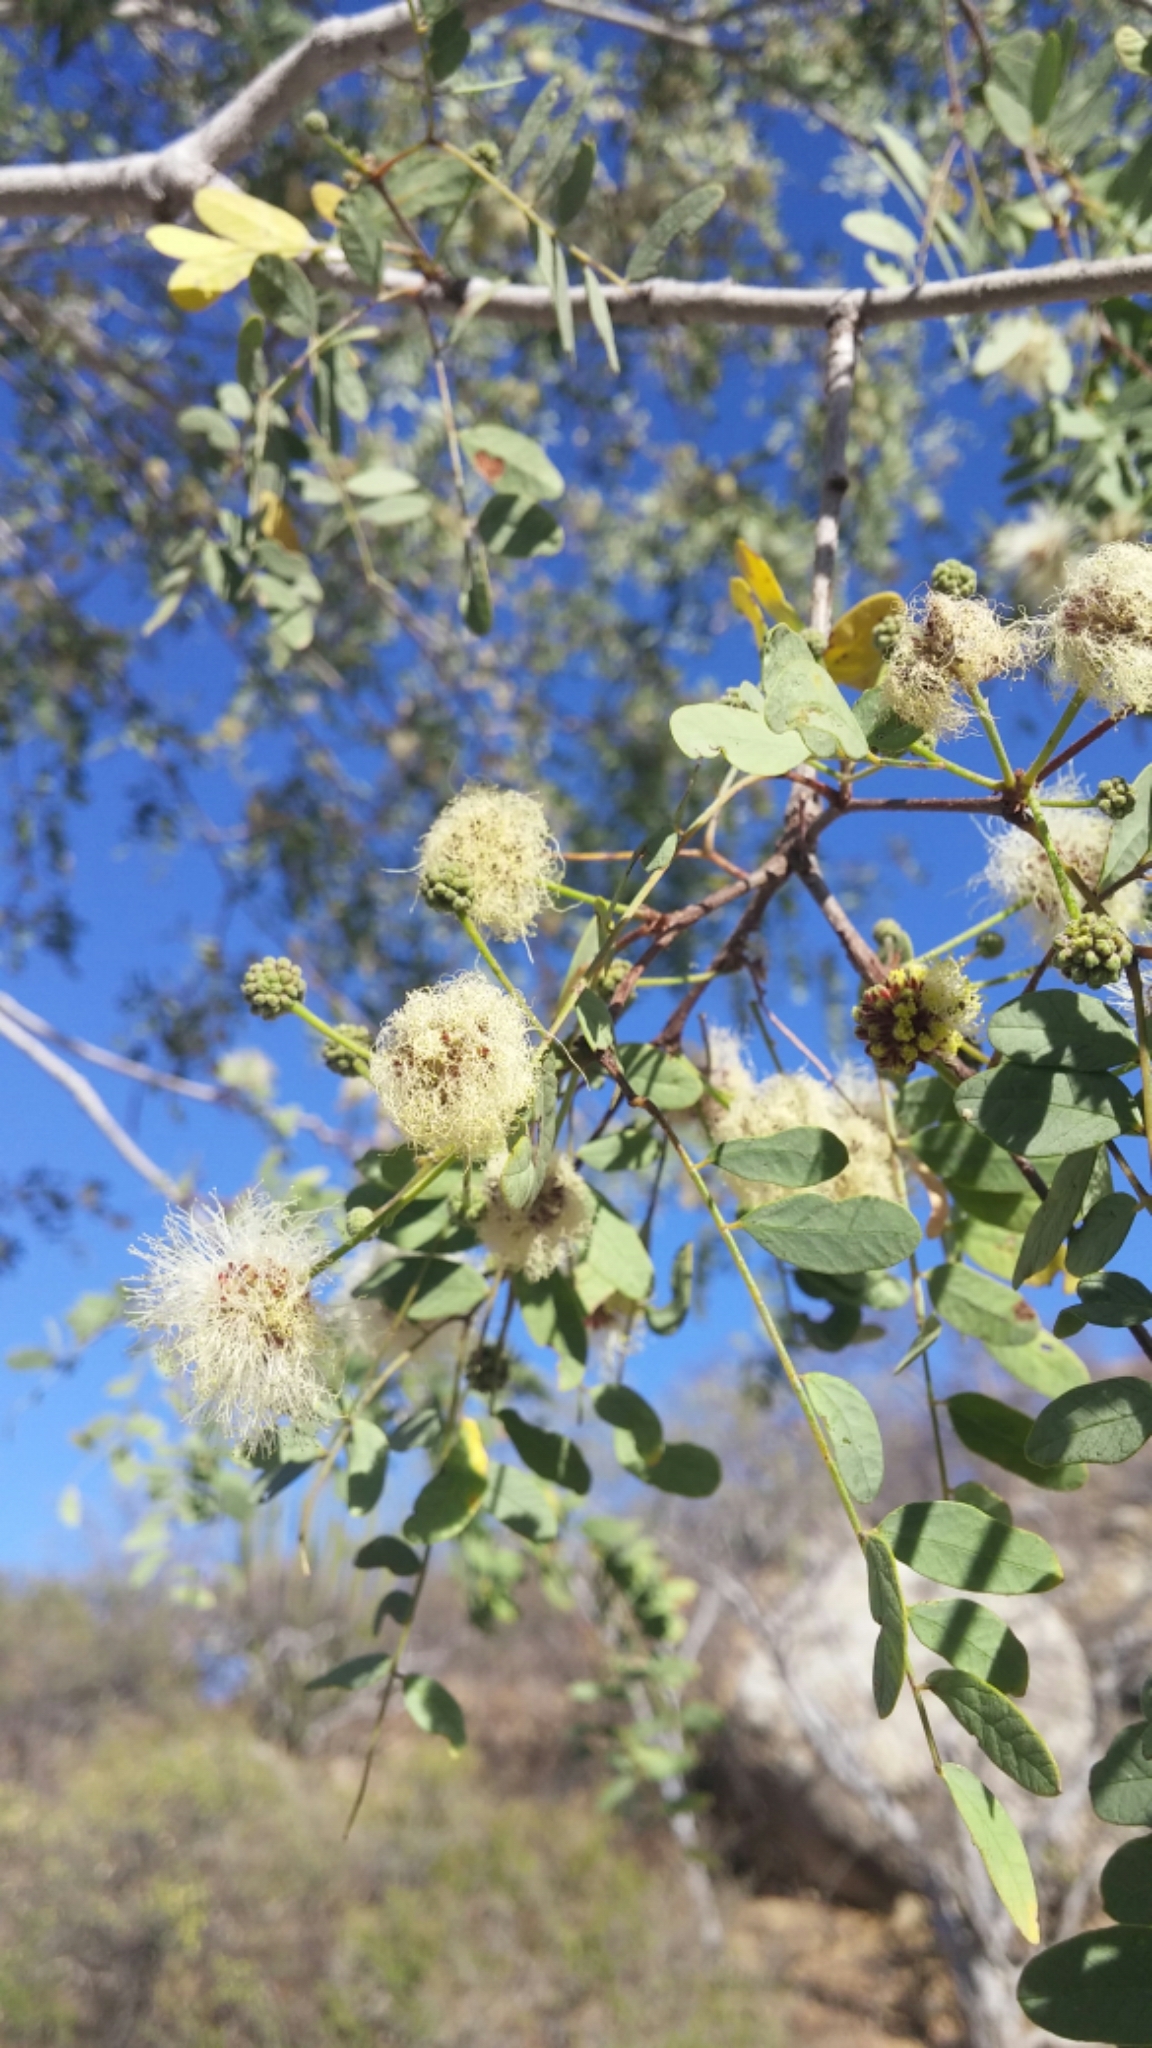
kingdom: Plantae
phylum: Tracheophyta
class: Magnoliopsida
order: Fabales
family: Fabaceae
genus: Lysiloma
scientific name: Lysiloma candidum
